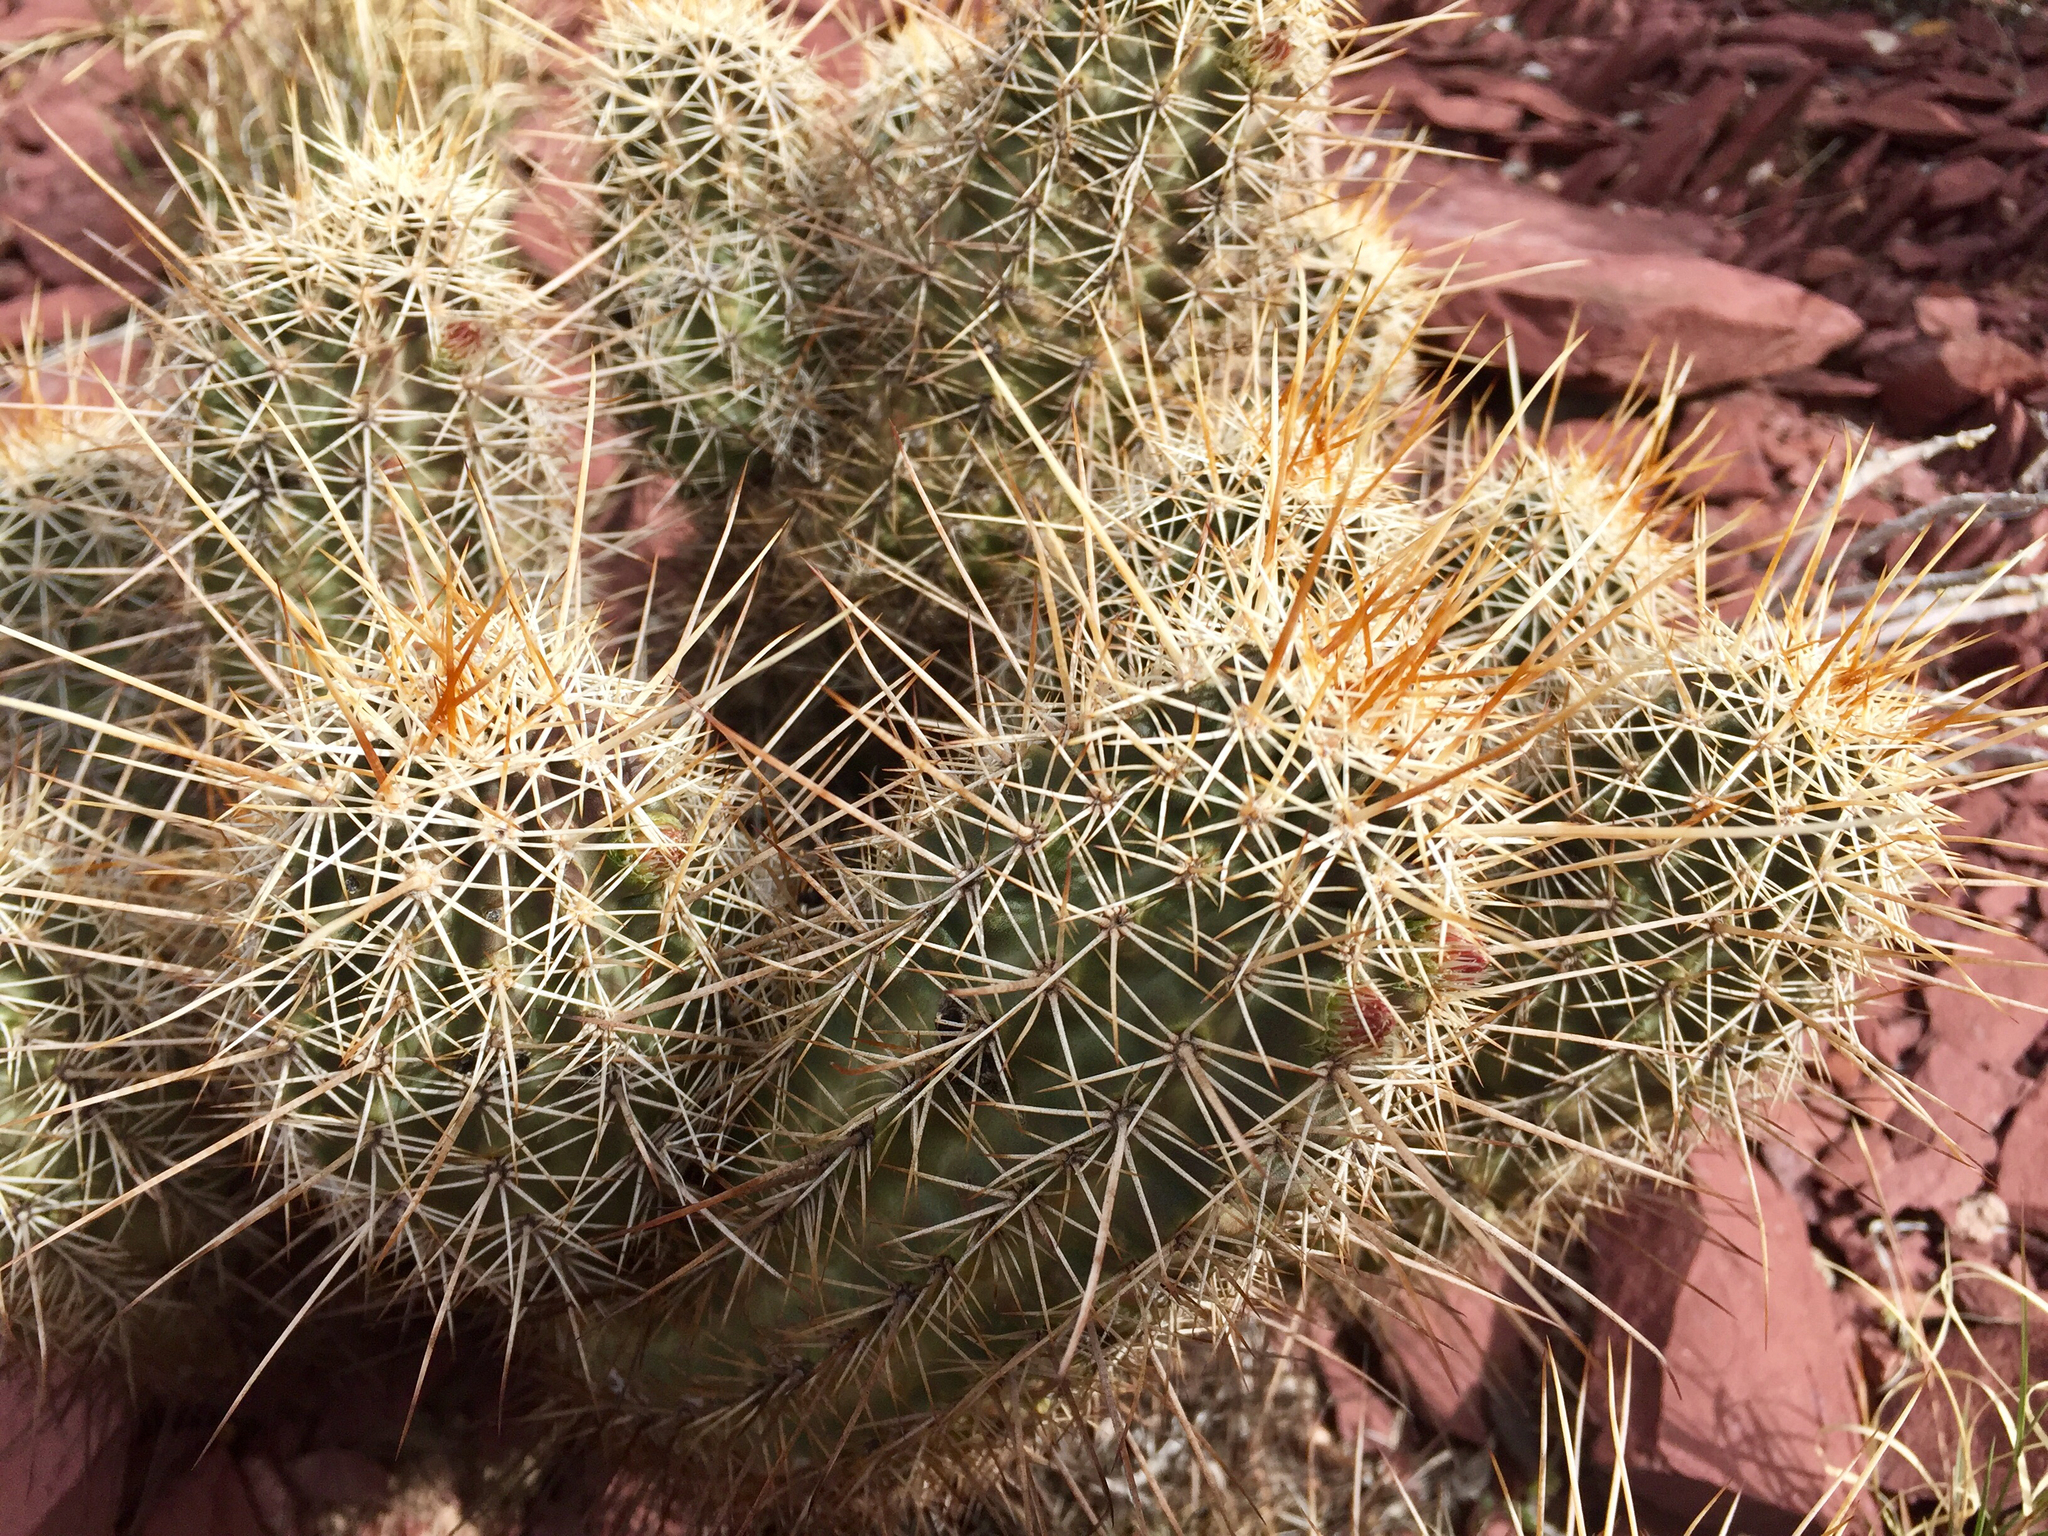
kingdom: Plantae
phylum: Tracheophyta
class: Magnoliopsida
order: Caryophyllales
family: Cactaceae
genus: Echinocereus
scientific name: Echinocereus fasciculatus
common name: Bundle hedgehog
